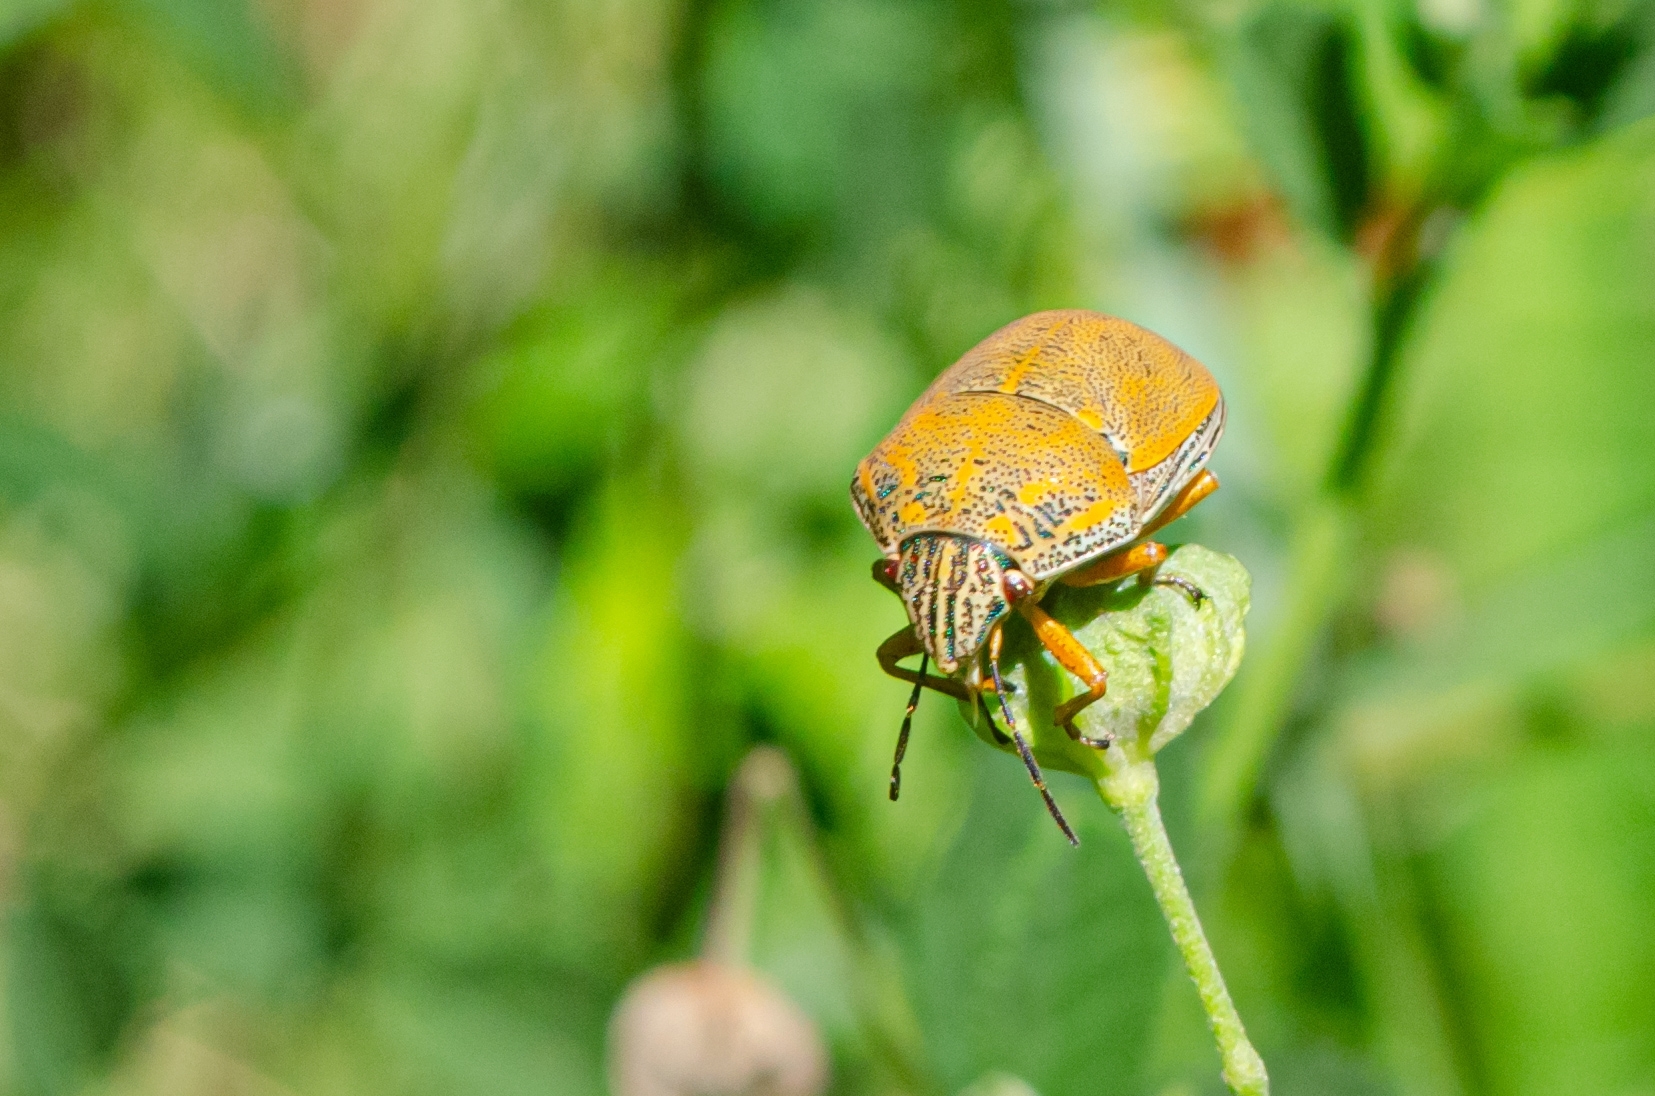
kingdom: Animalia
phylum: Arthropoda
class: Insecta
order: Hemiptera
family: Scutelleridae
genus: Orsilochides
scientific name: Orsilochides
